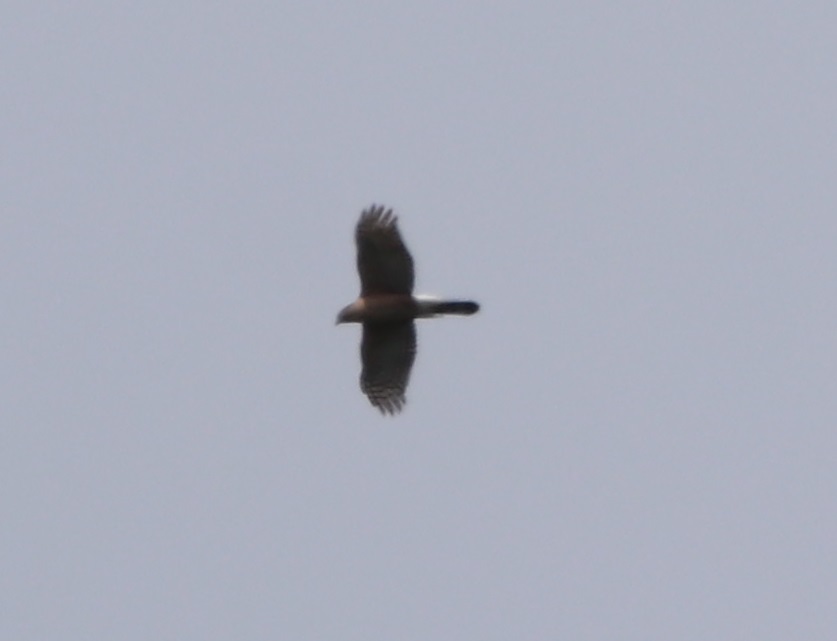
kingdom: Animalia
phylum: Chordata
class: Aves
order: Accipitriformes
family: Accipitridae
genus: Accipiter
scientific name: Accipiter cooperii
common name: Cooper's hawk
